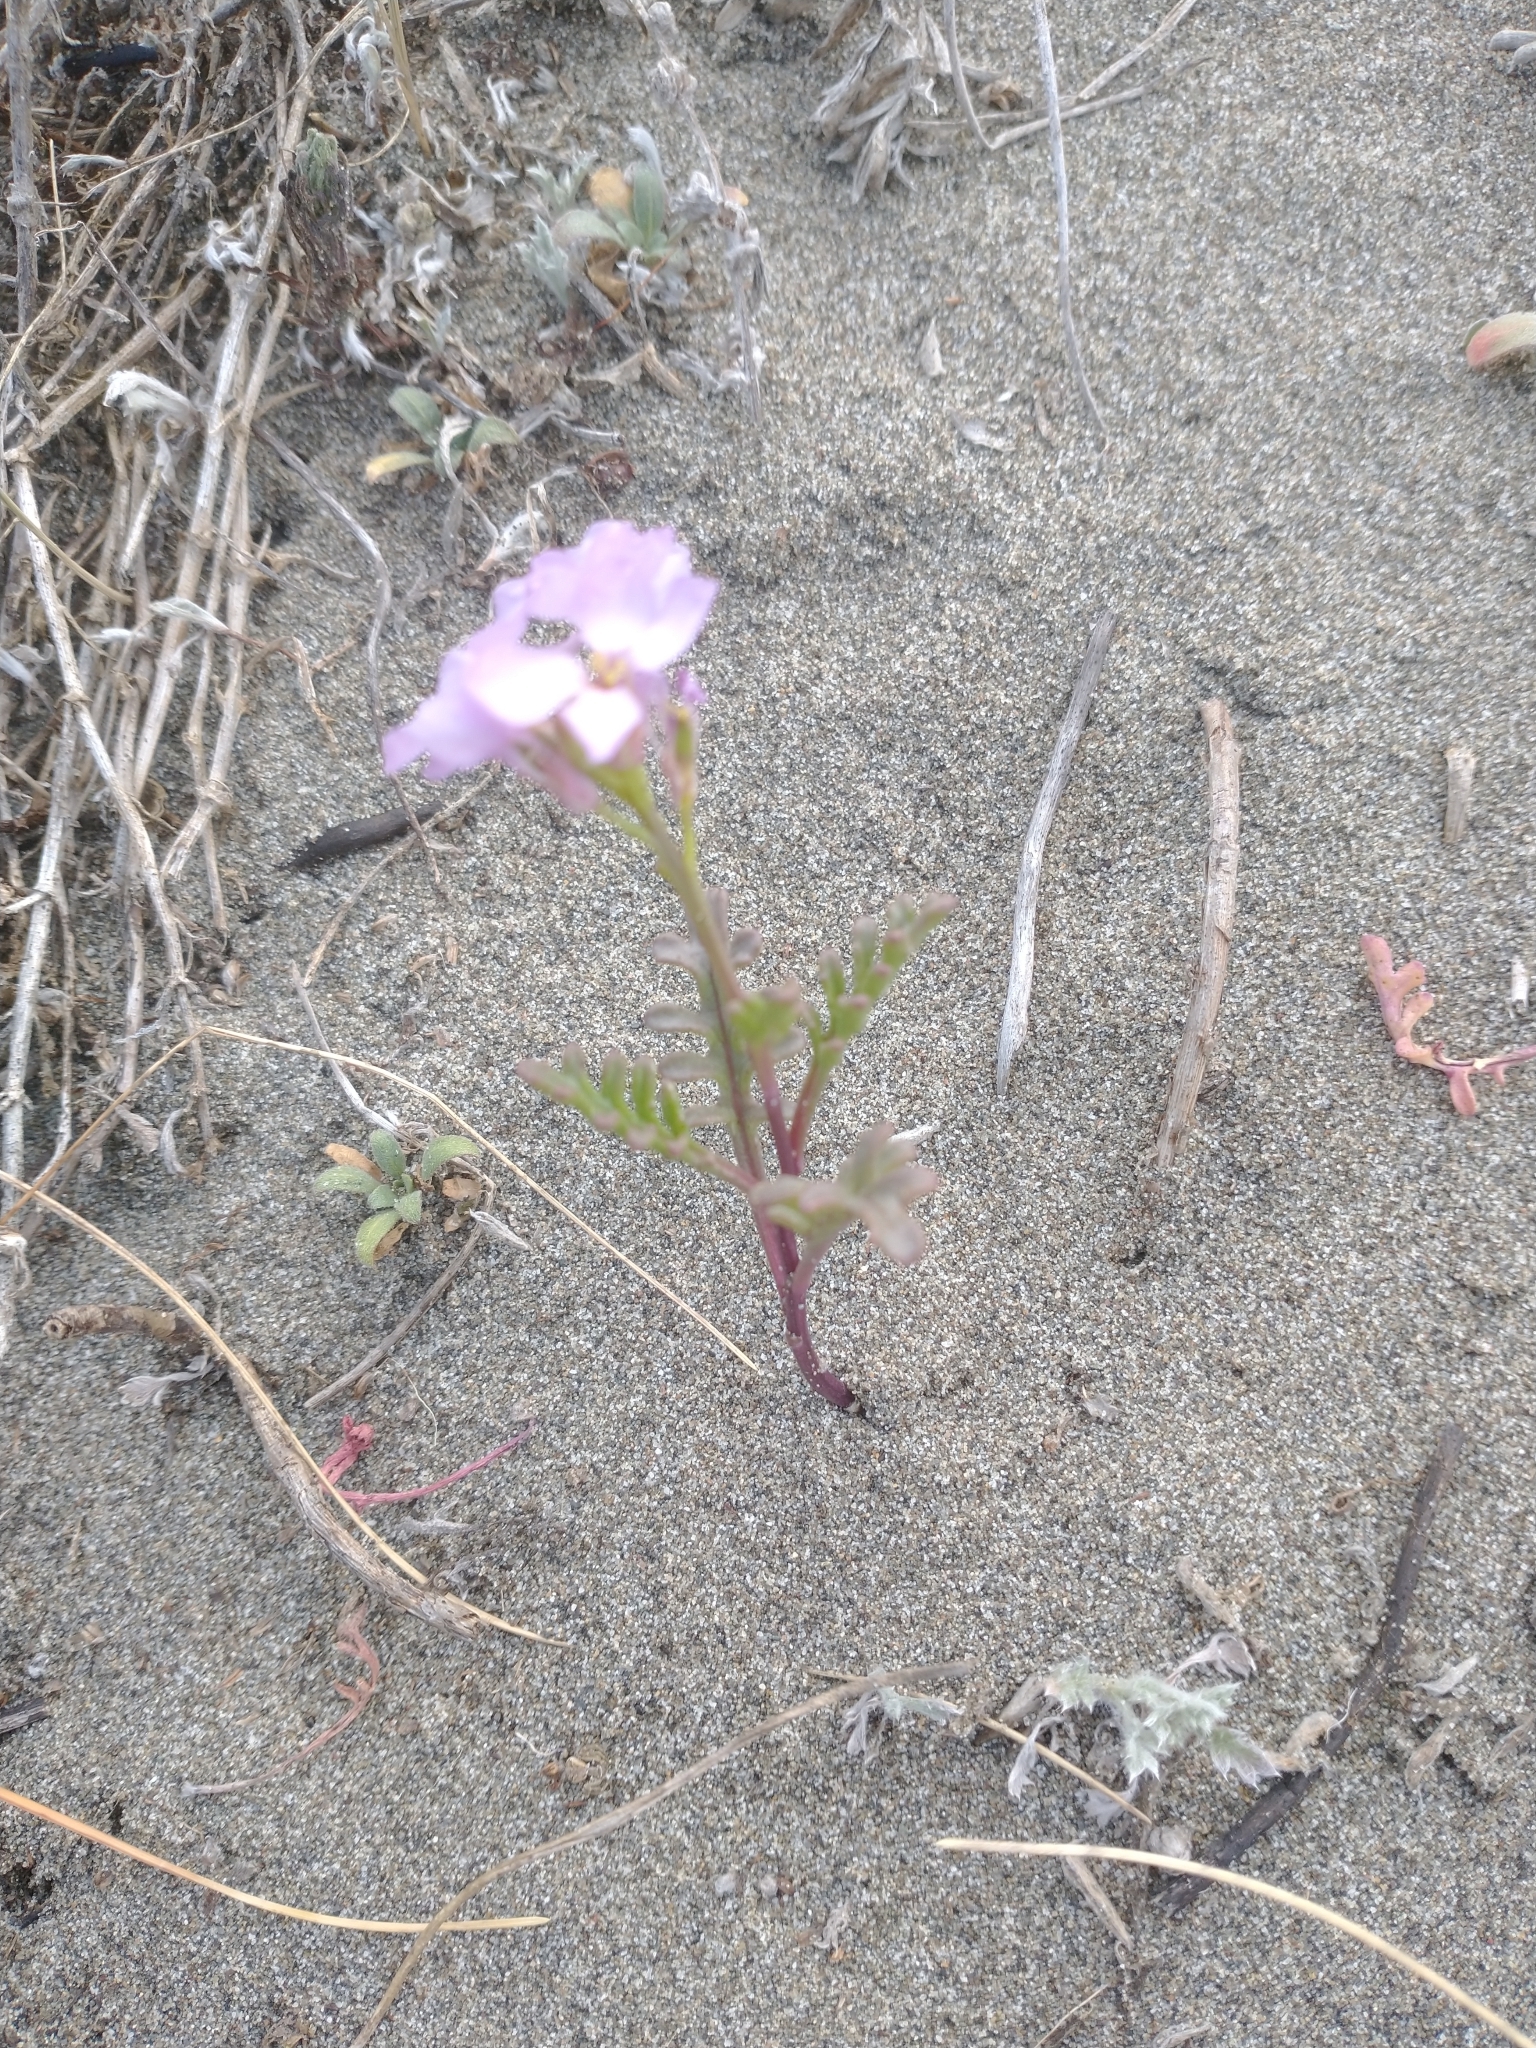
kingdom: Plantae
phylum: Tracheophyta
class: Magnoliopsida
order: Brassicales
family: Brassicaceae
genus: Cakile
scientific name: Cakile maritima
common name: Sea rocket
